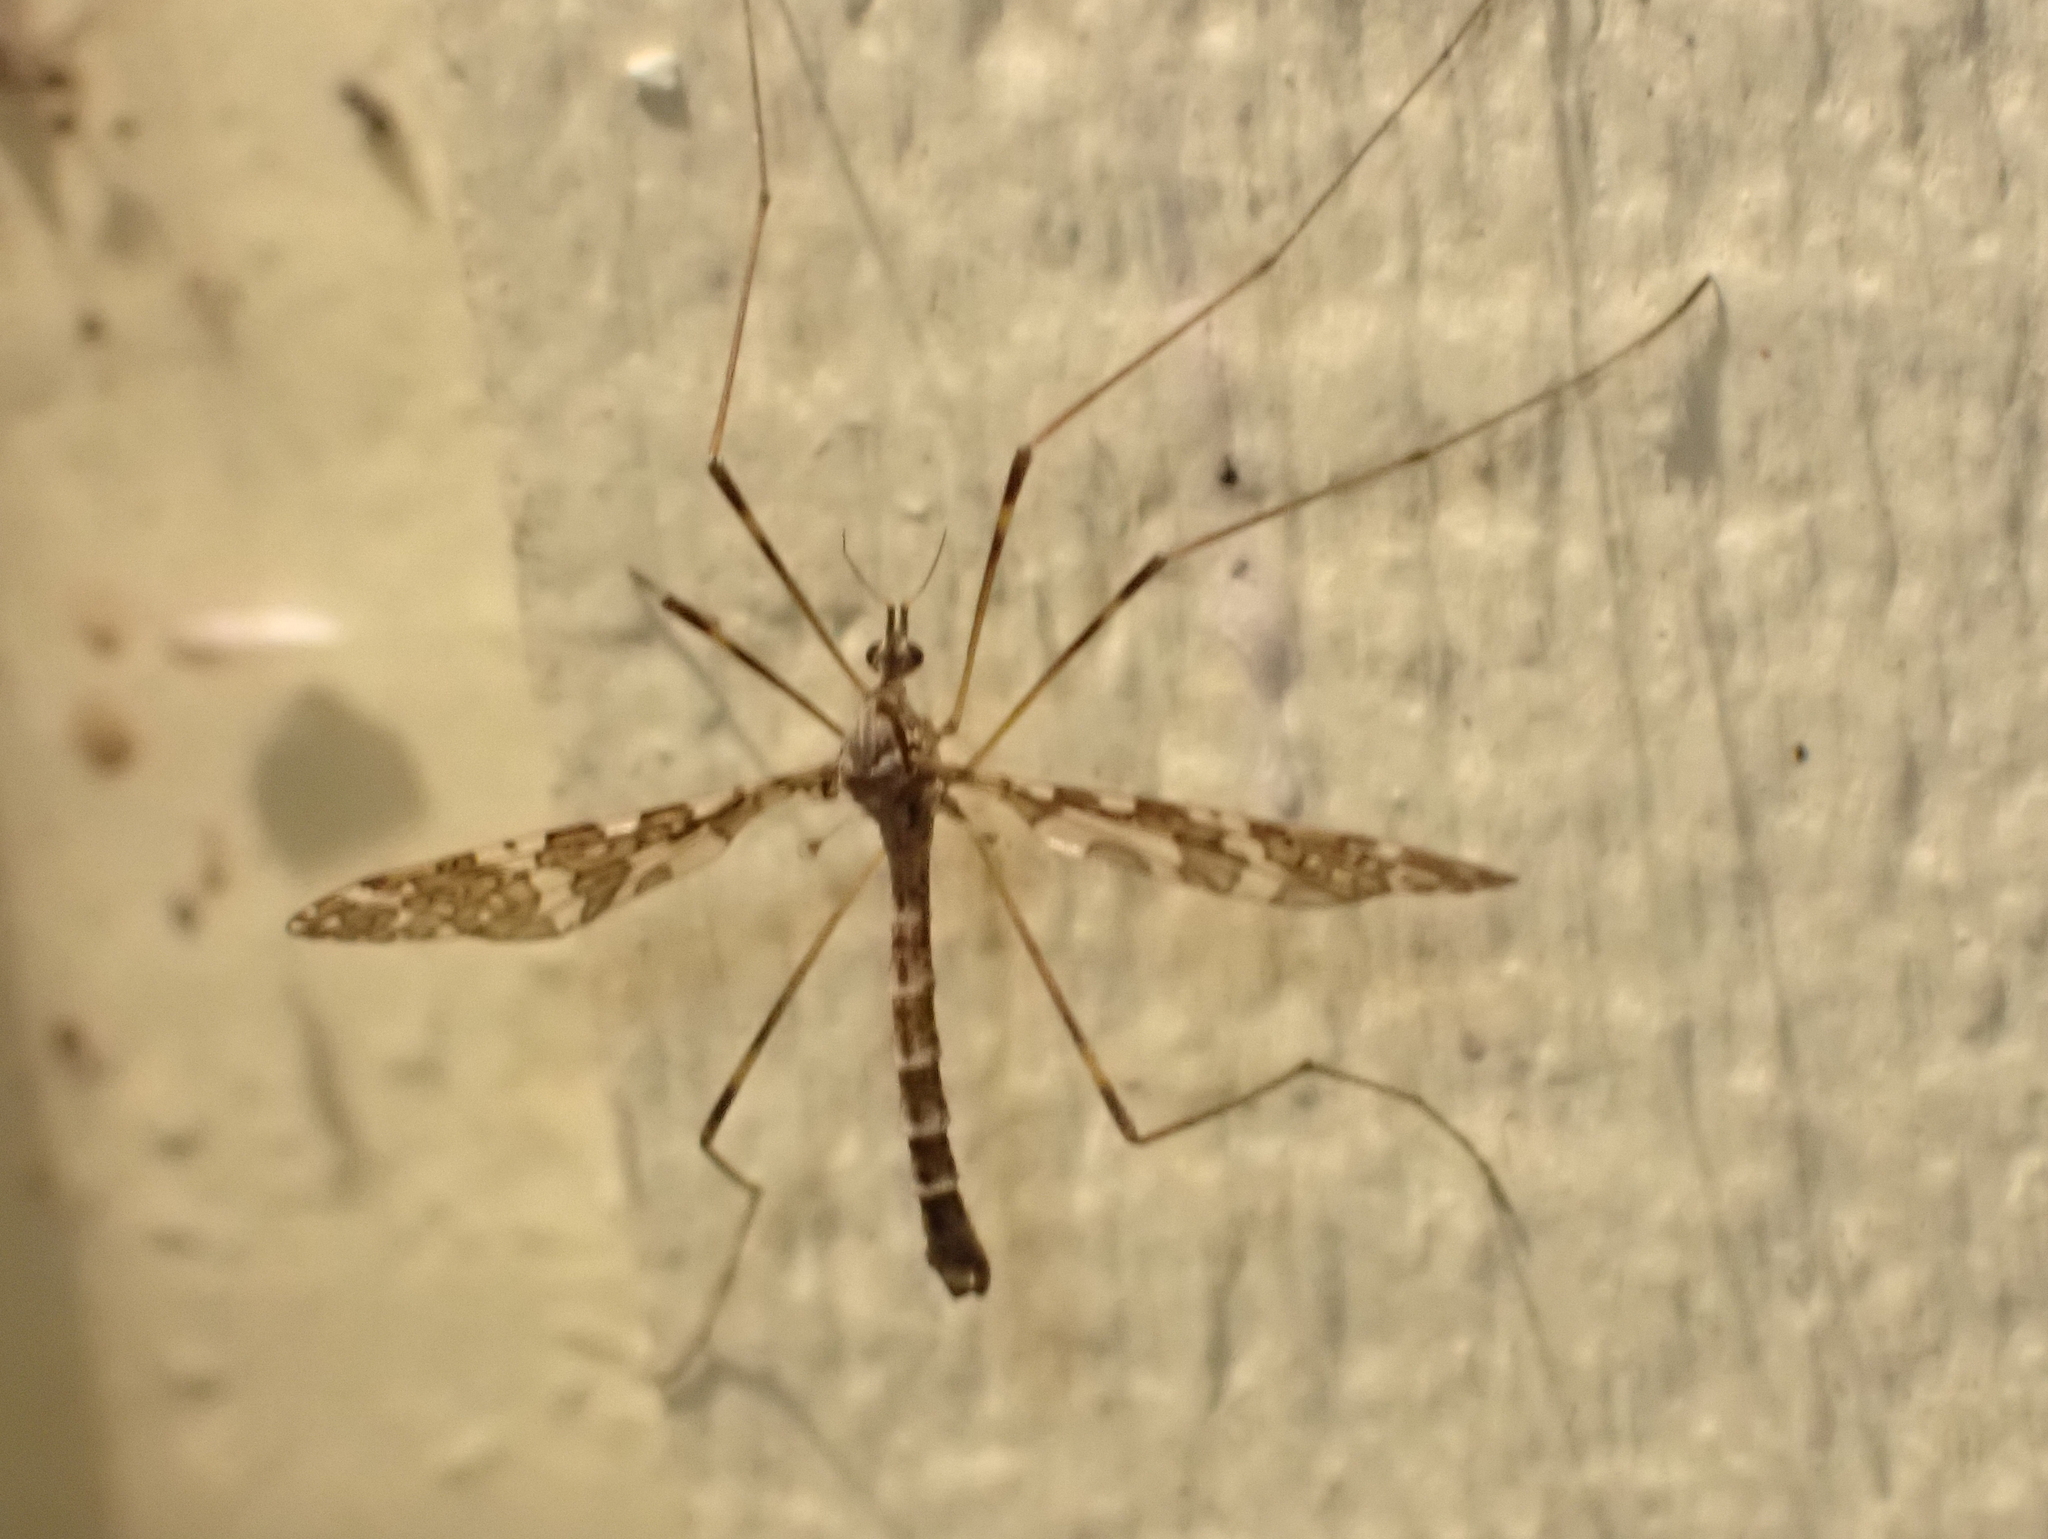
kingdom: Animalia
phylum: Arthropoda
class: Insecta
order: Diptera
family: Limoniidae
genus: Epiphragma
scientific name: Epiphragma fasciapenne
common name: Band-winged crane fly
